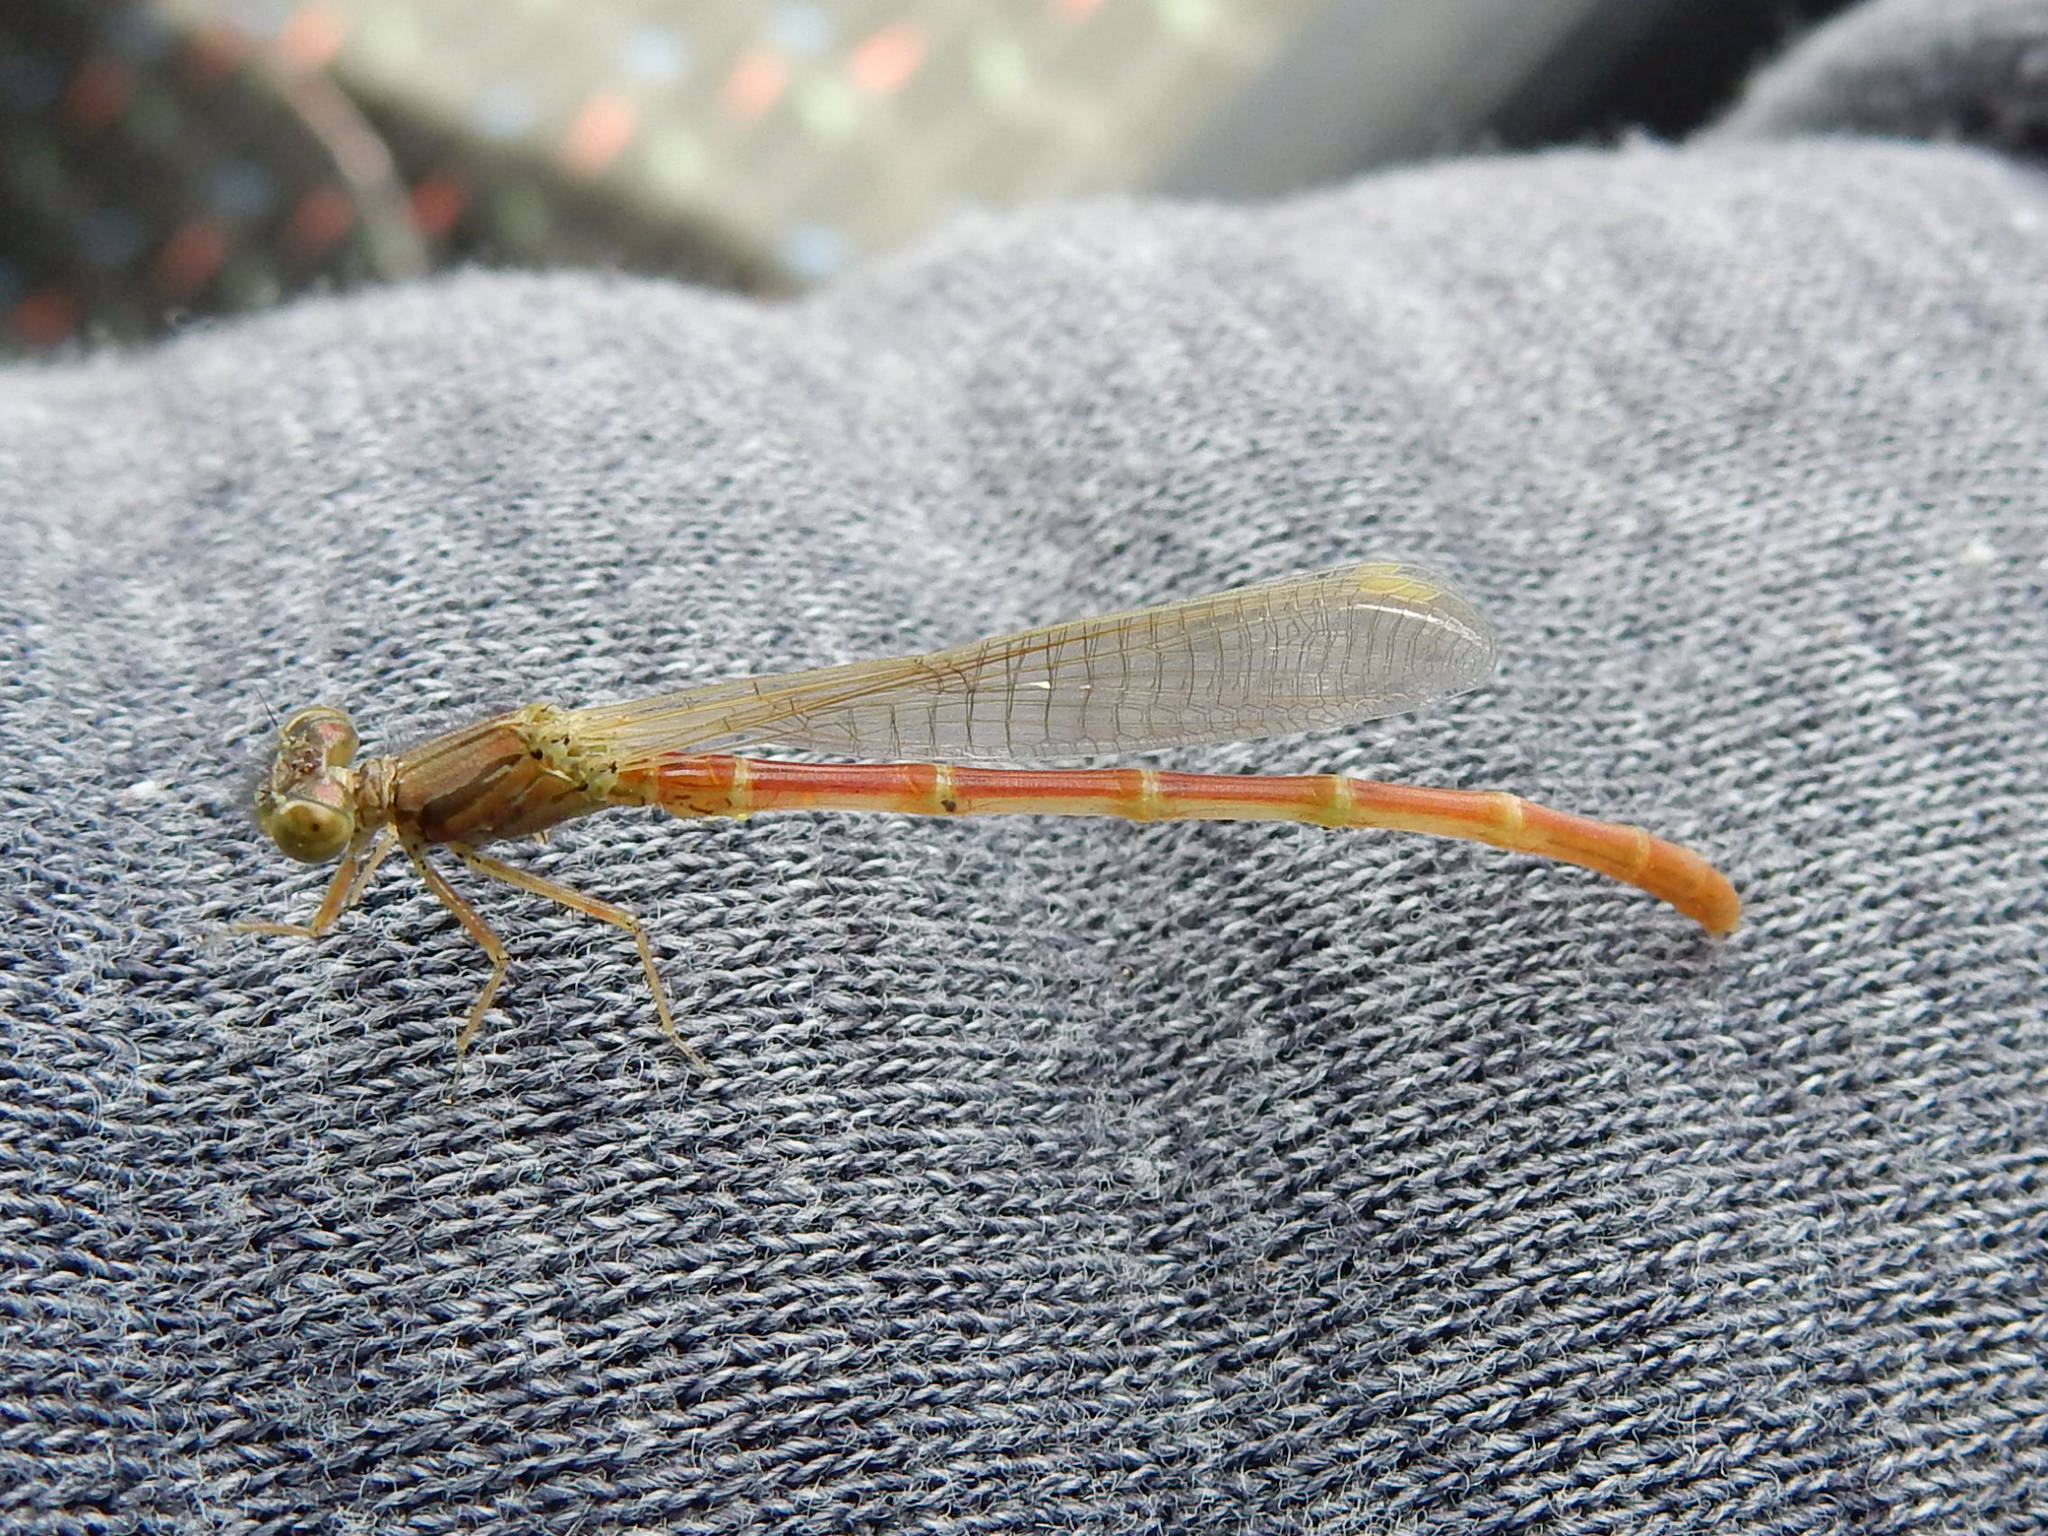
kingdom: Animalia
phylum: Arthropoda
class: Insecta
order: Odonata
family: Coenagrionidae
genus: Xanthocnemis
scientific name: Xanthocnemis zealandica
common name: Common redcoat damselfly
